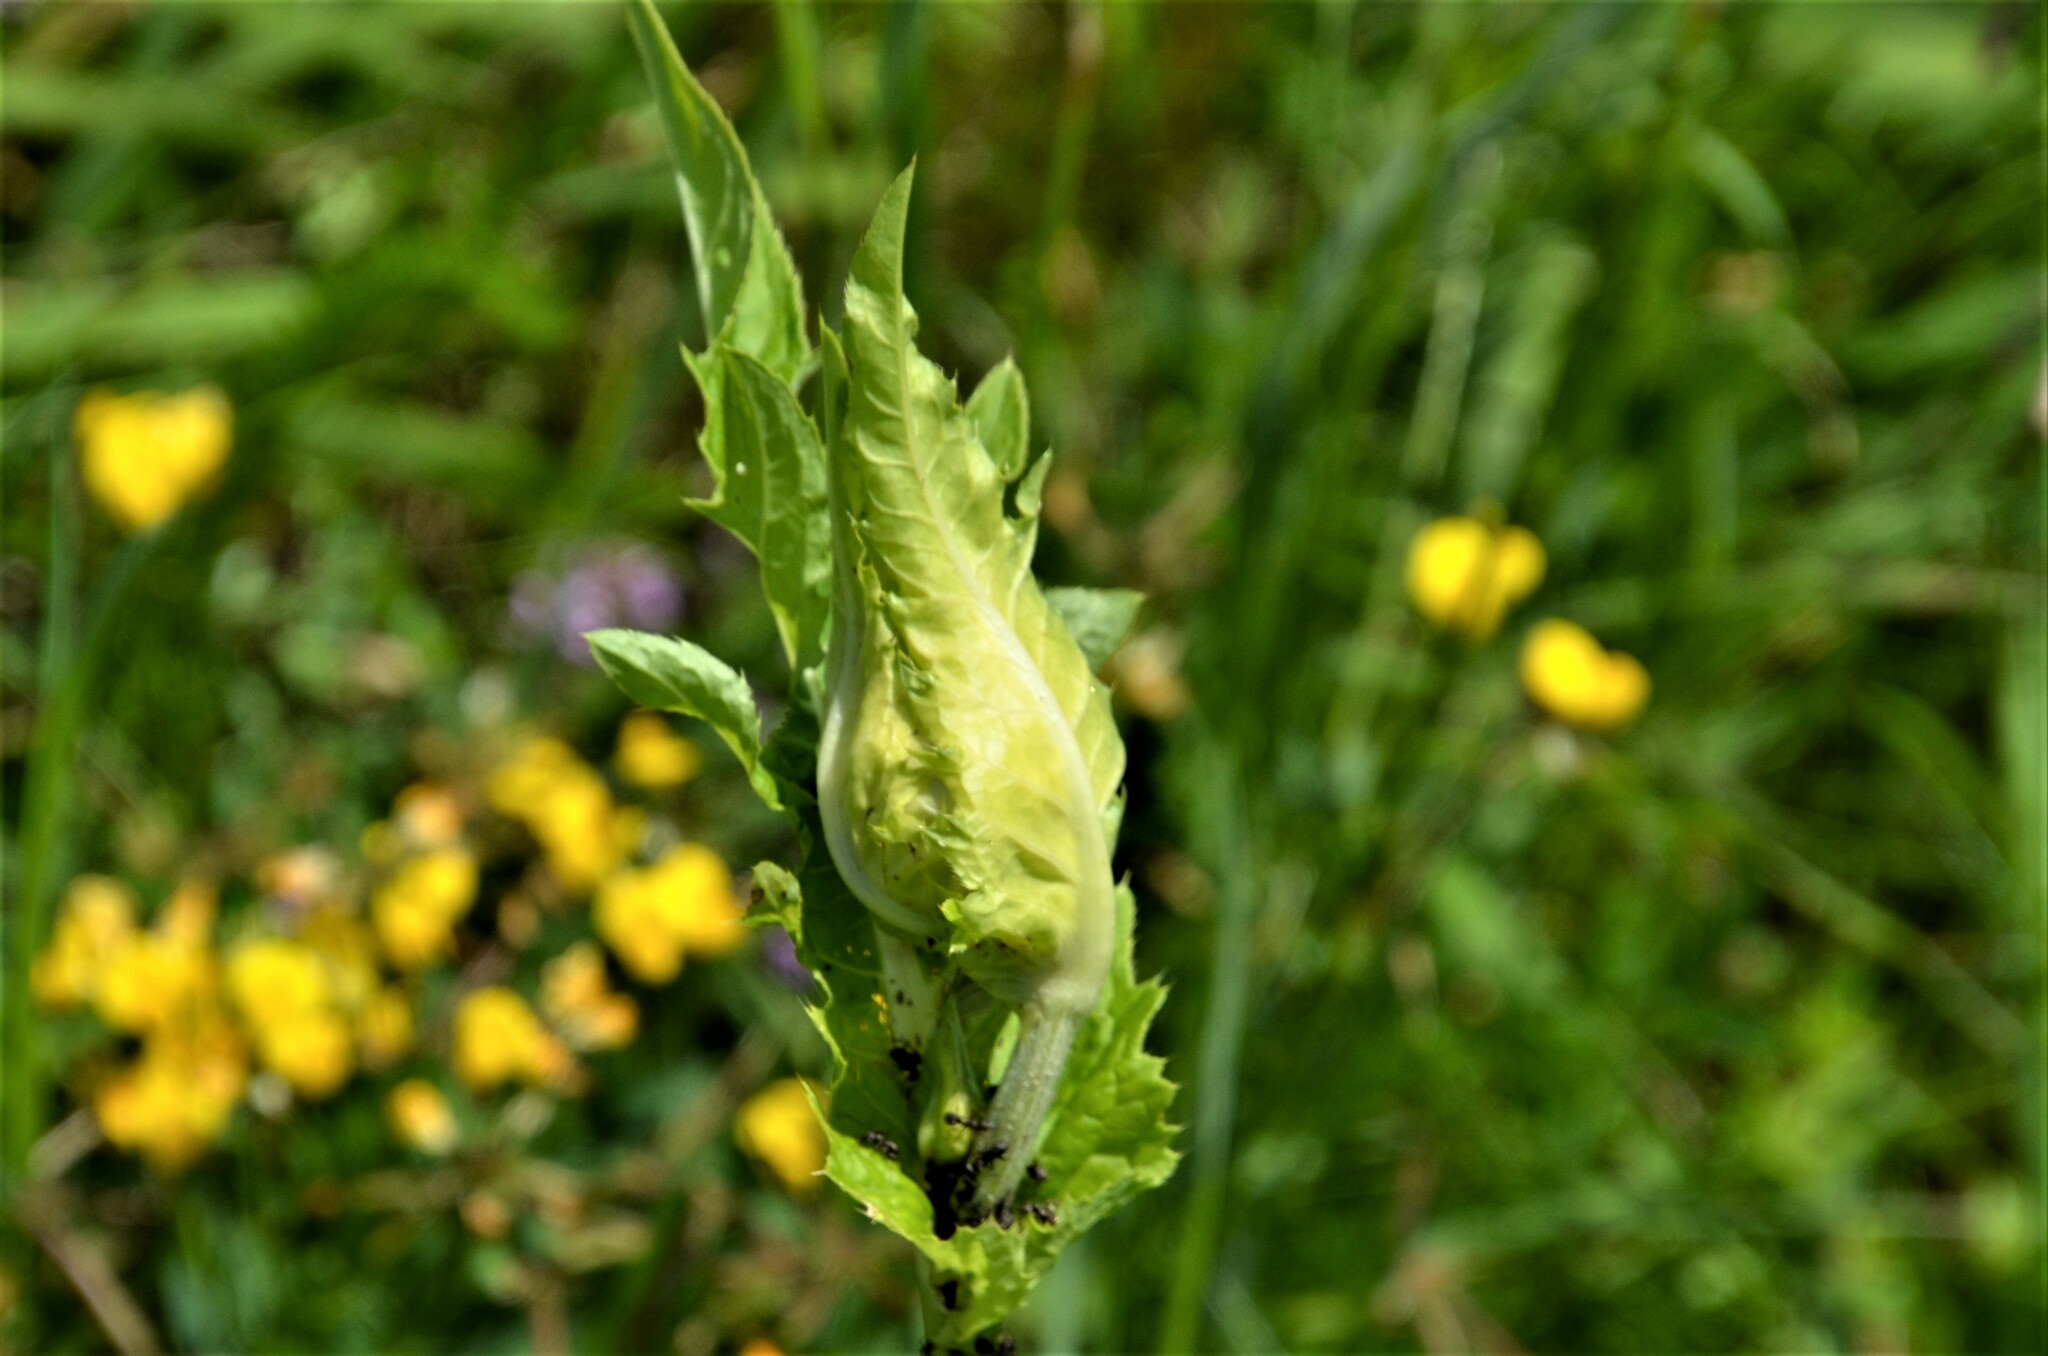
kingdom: Plantae
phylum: Tracheophyta
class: Magnoliopsida
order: Asterales
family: Asteraceae
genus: Cirsium
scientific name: Cirsium oleraceum
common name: Cabbage thistle
